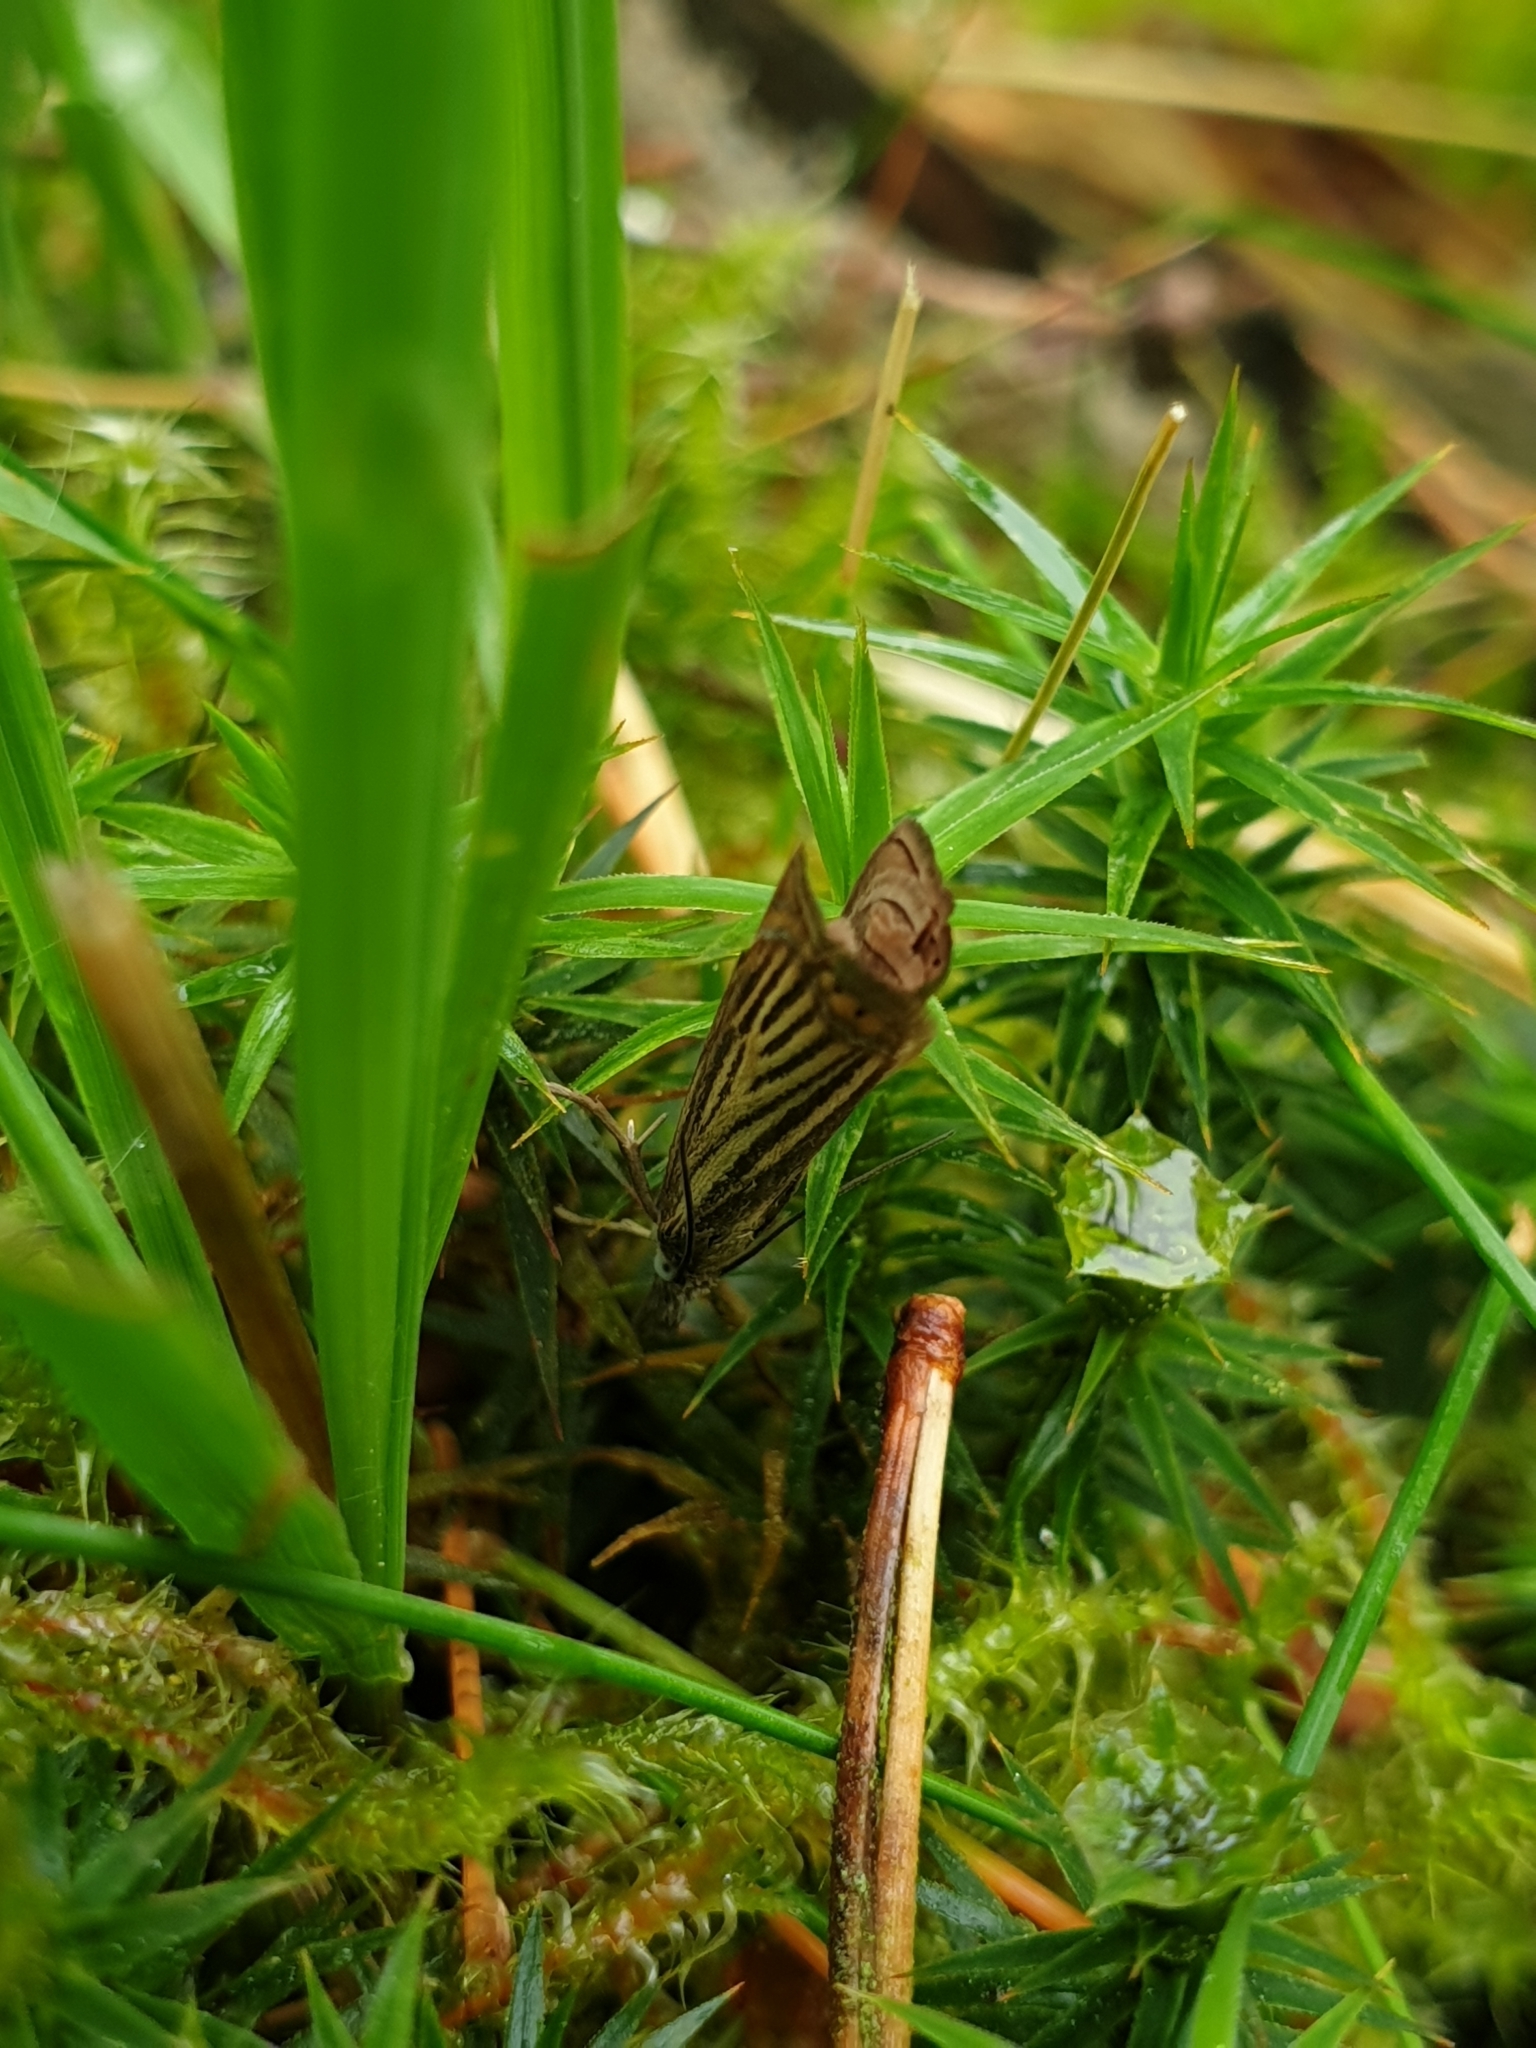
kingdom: Animalia
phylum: Arthropoda
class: Insecta
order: Lepidoptera
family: Crambidae
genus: Chrysoteuchia
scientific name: Chrysoteuchia culmella
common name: Garden grass-veneer
